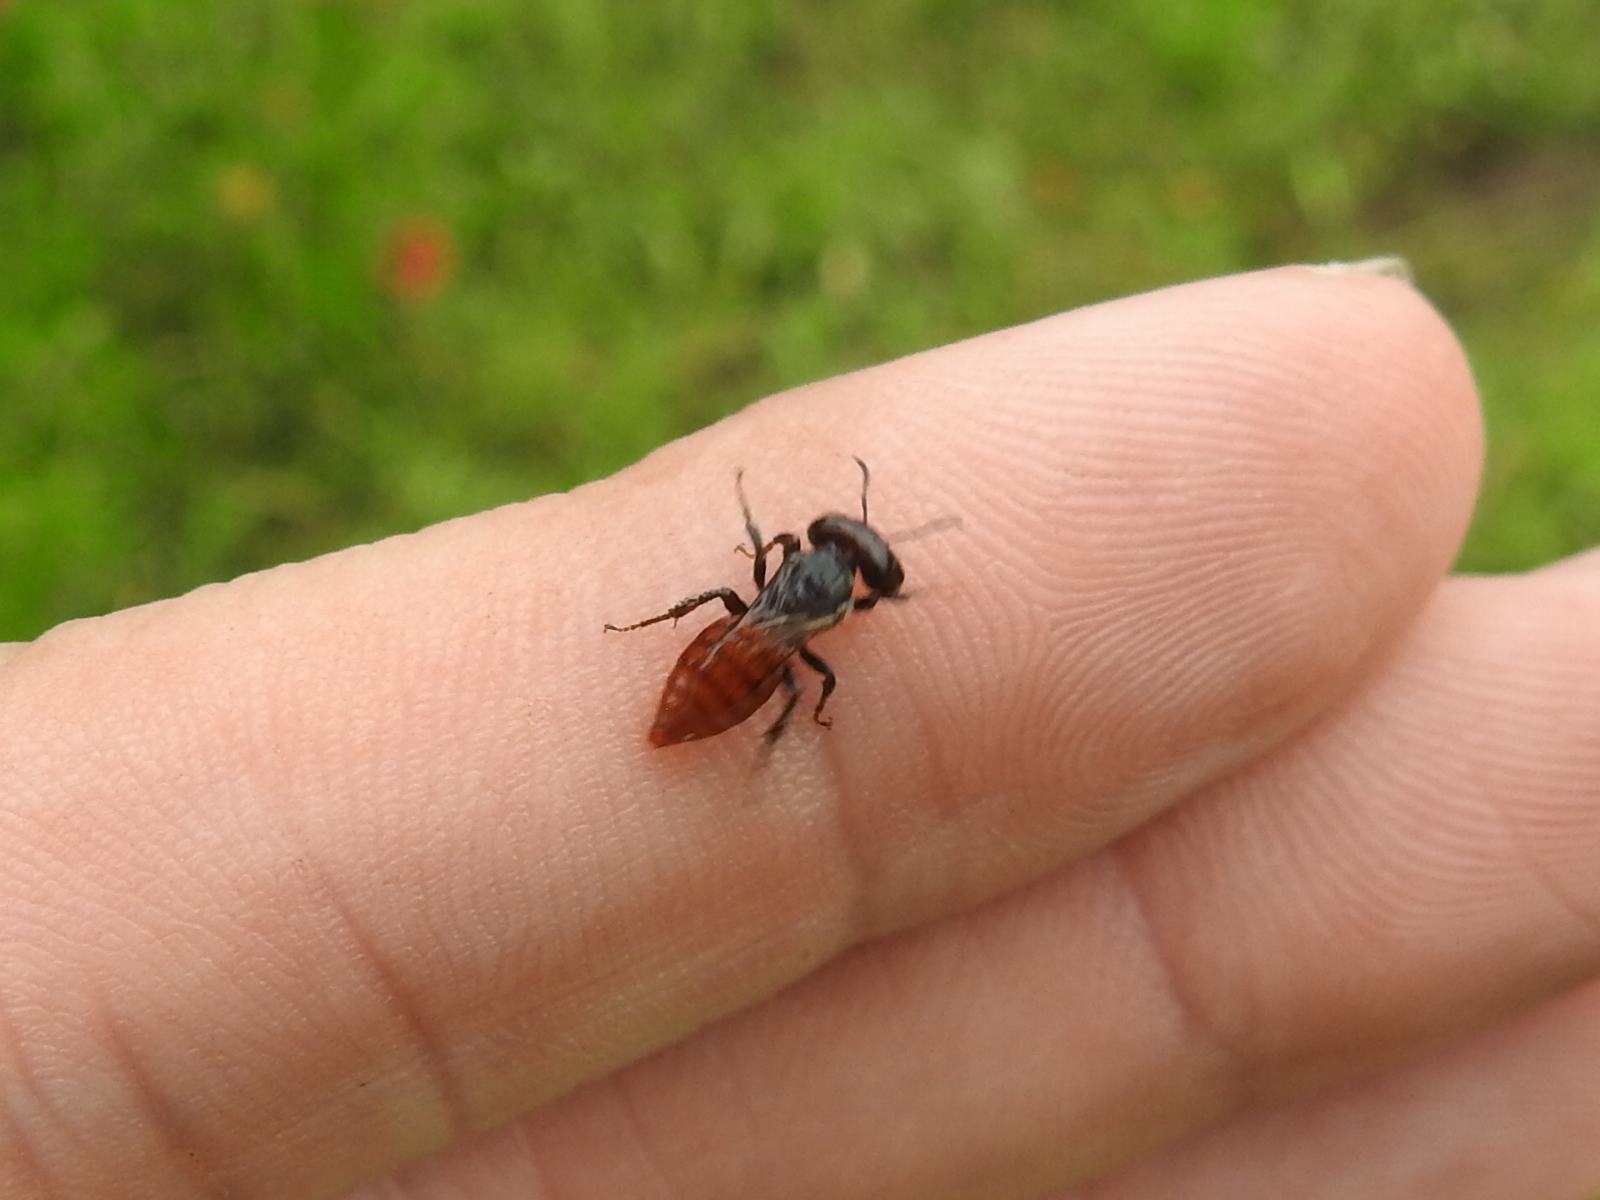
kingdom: Animalia
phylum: Arthropoda
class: Insecta
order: Hymenoptera
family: Andrenidae
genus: Macrotera
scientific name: Macrotera
